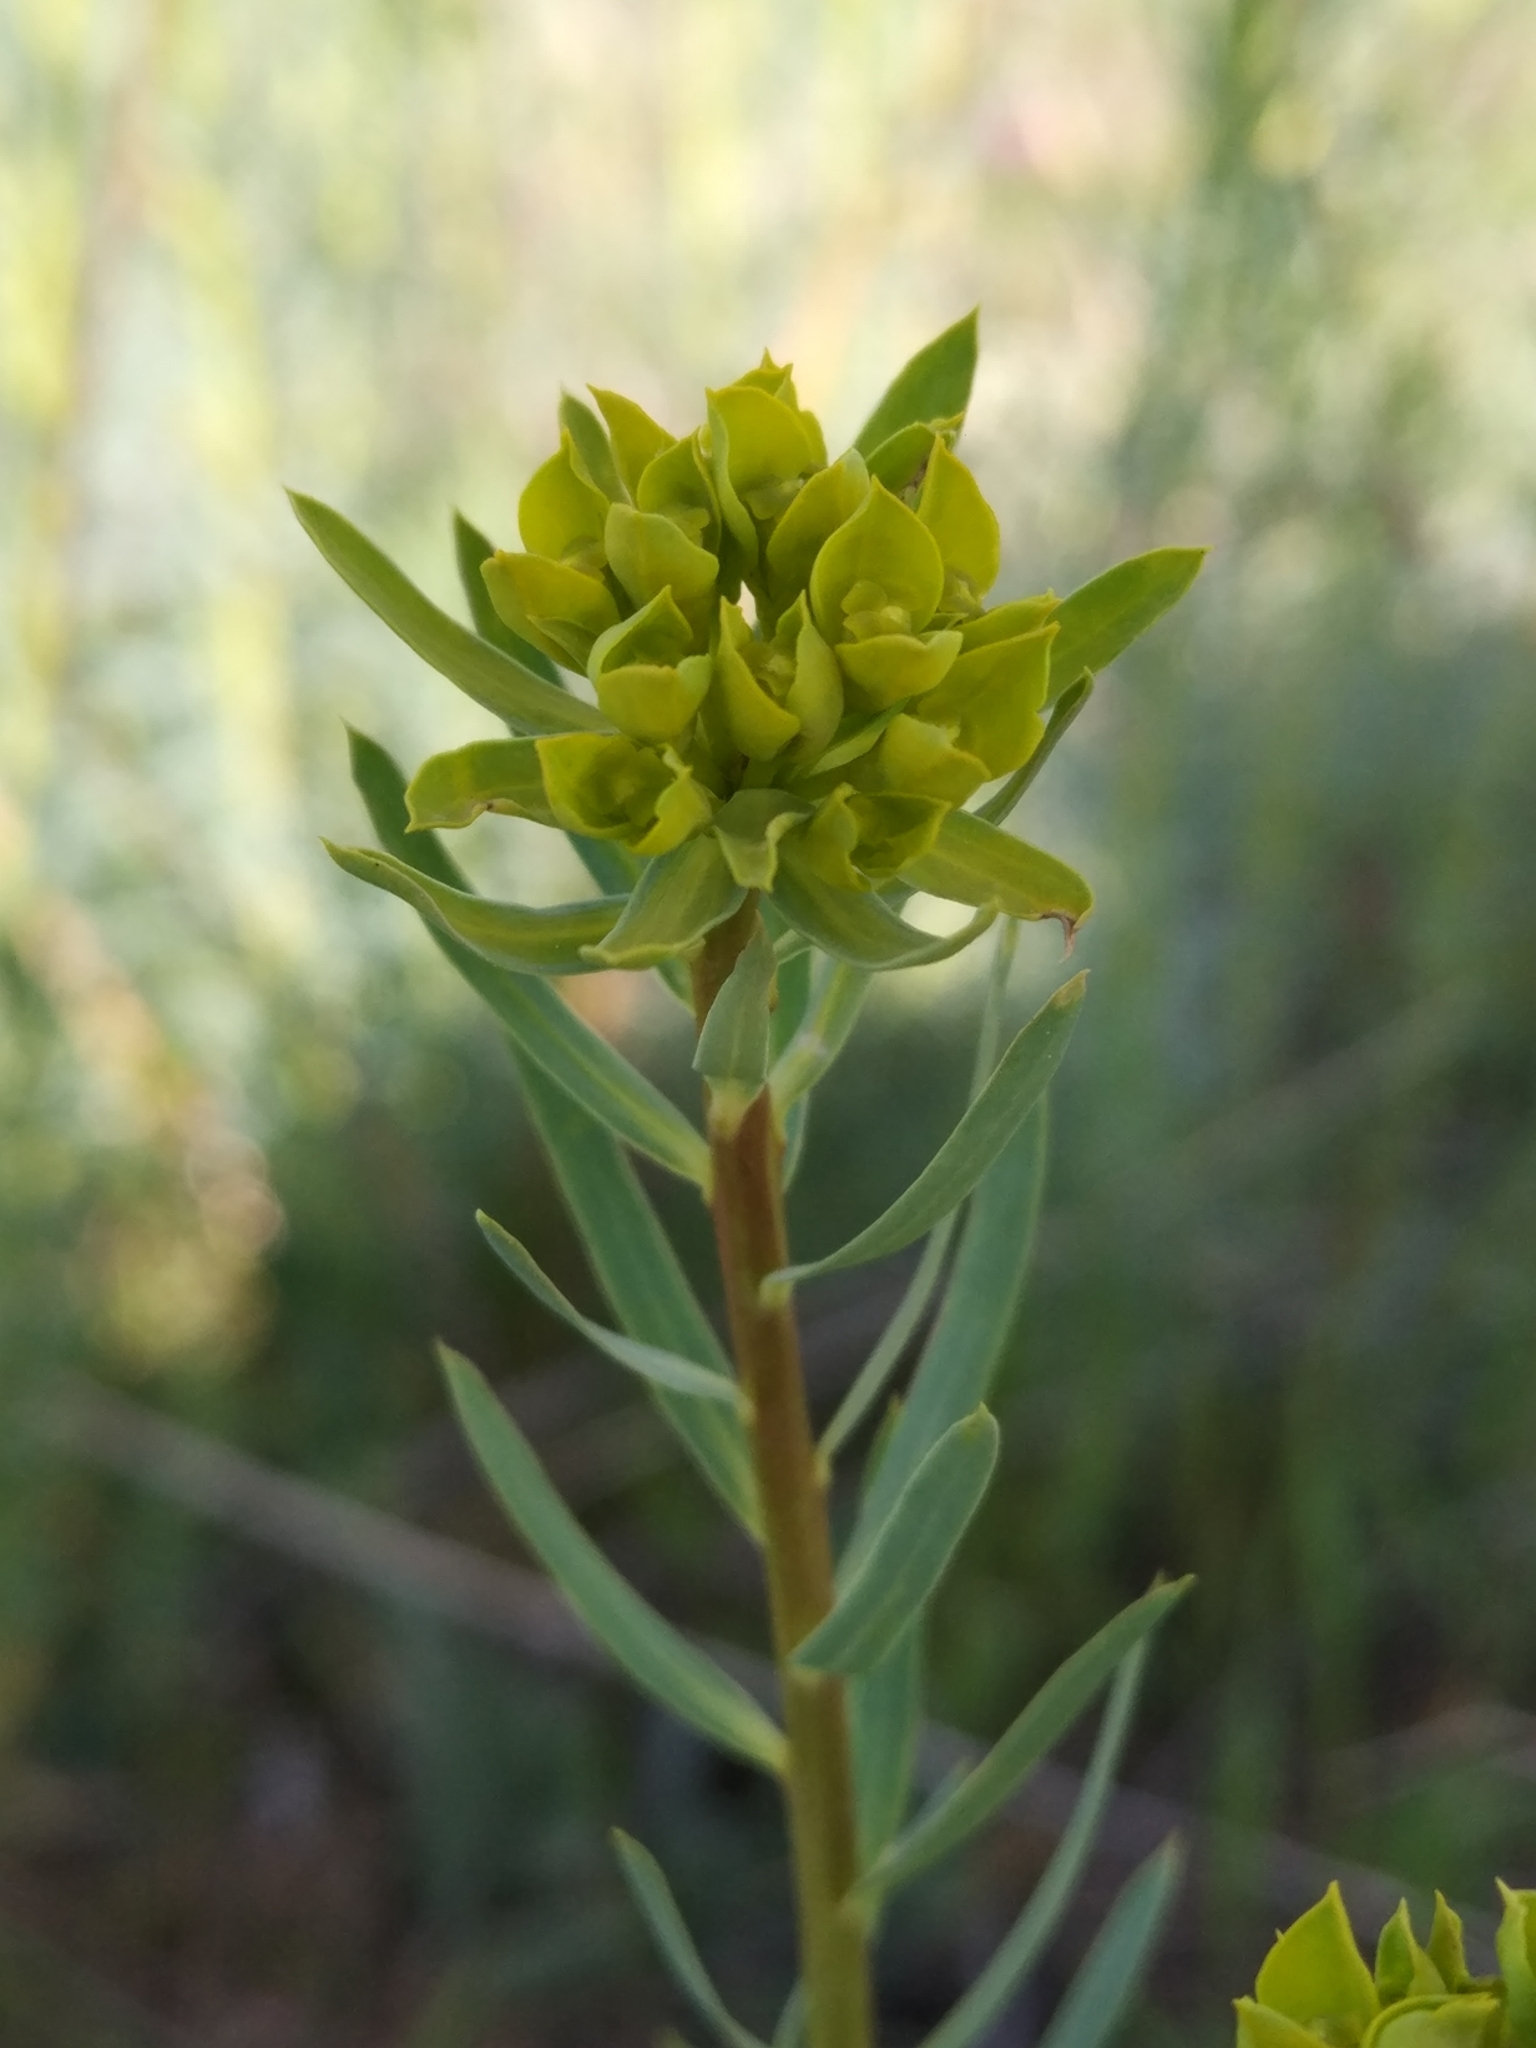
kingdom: Plantae
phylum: Tracheophyta
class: Magnoliopsida
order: Malpighiales
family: Euphorbiaceae
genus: Euphorbia
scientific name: Euphorbia virgata
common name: Leafy spurge
